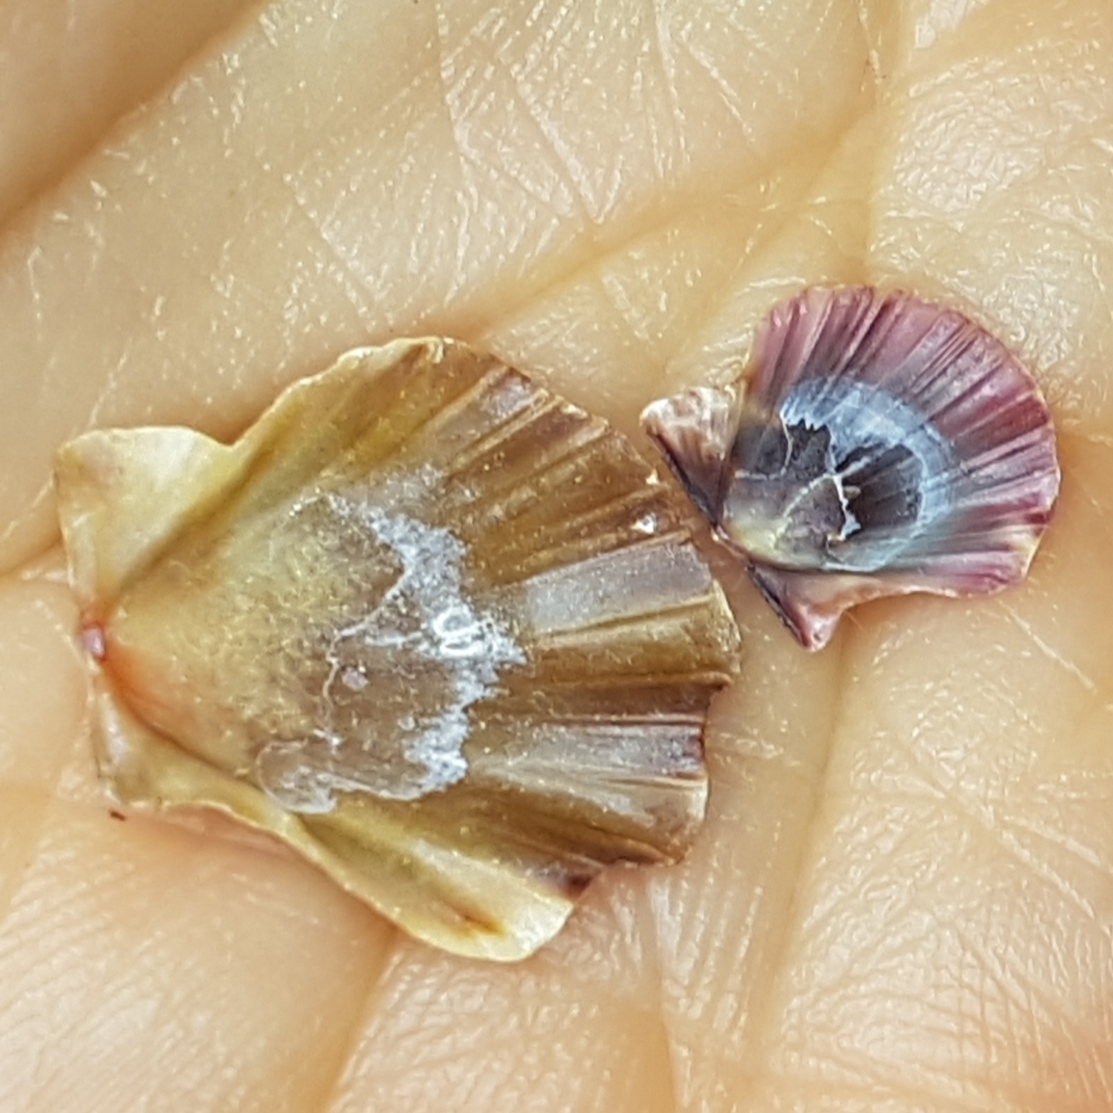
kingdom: Animalia
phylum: Mollusca
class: Bivalvia
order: Pectinida
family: Pectinidae
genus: Flexopecten
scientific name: Flexopecten flexuosus
